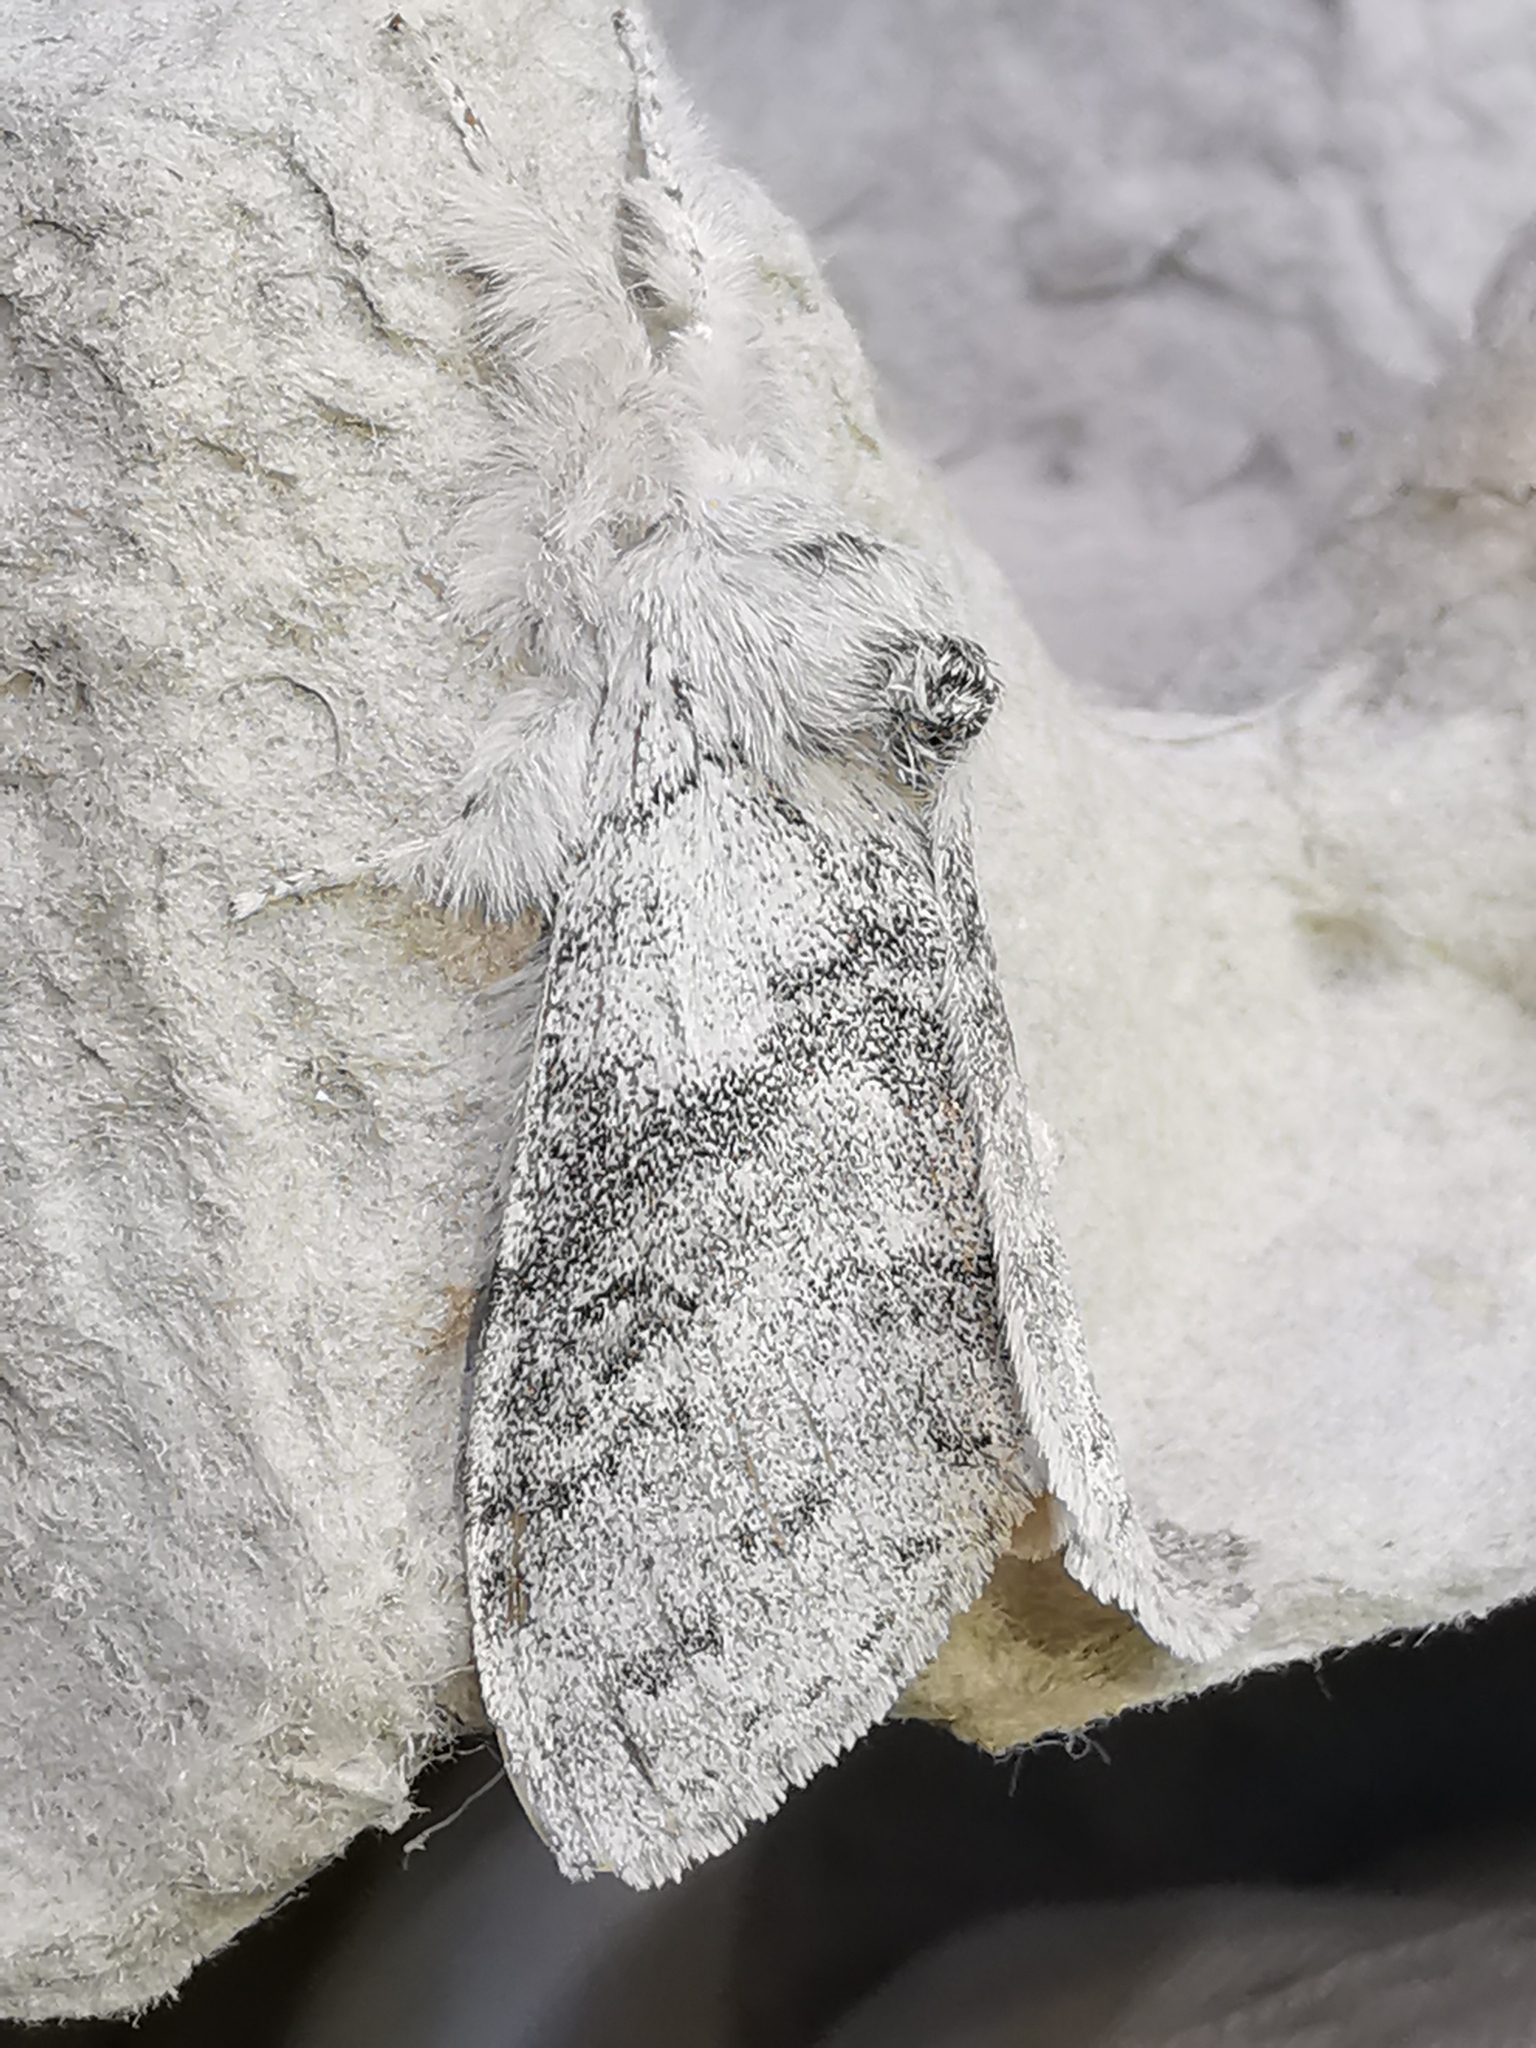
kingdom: Animalia
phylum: Arthropoda
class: Insecta
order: Lepidoptera
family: Erebidae
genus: Calliteara
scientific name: Calliteara pudibunda
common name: Pale tussock
